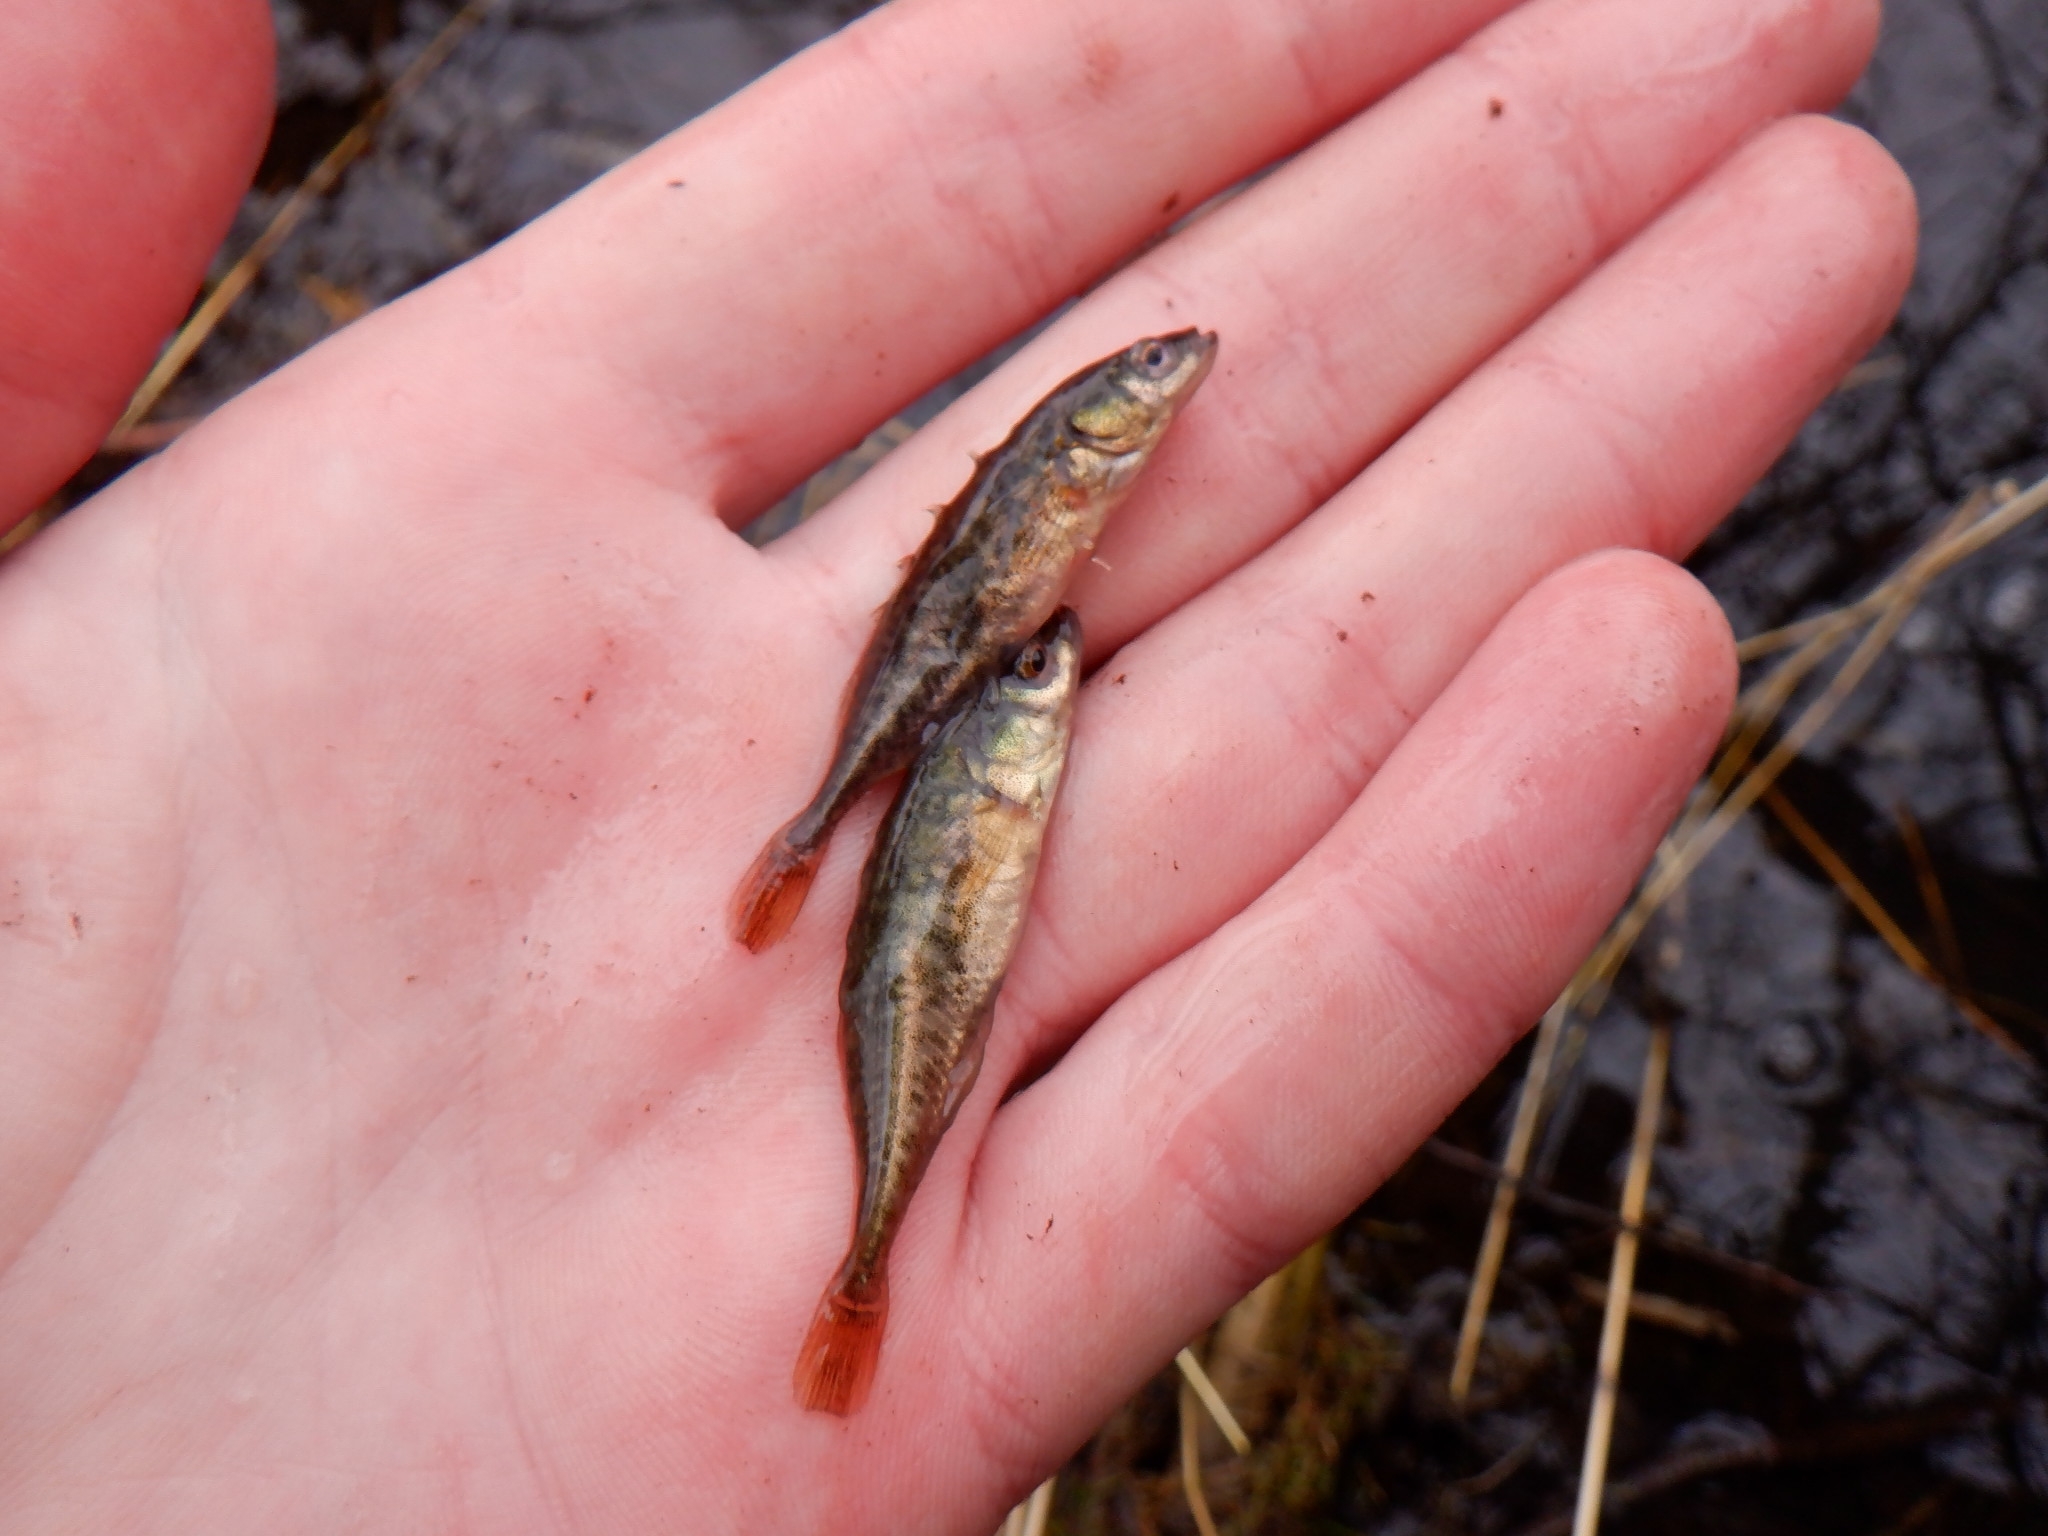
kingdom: Animalia
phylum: Chordata
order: Gasterosteiformes
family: Gasterosteidae
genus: Culaea
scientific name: Culaea inconstans
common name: Brook stickleback
